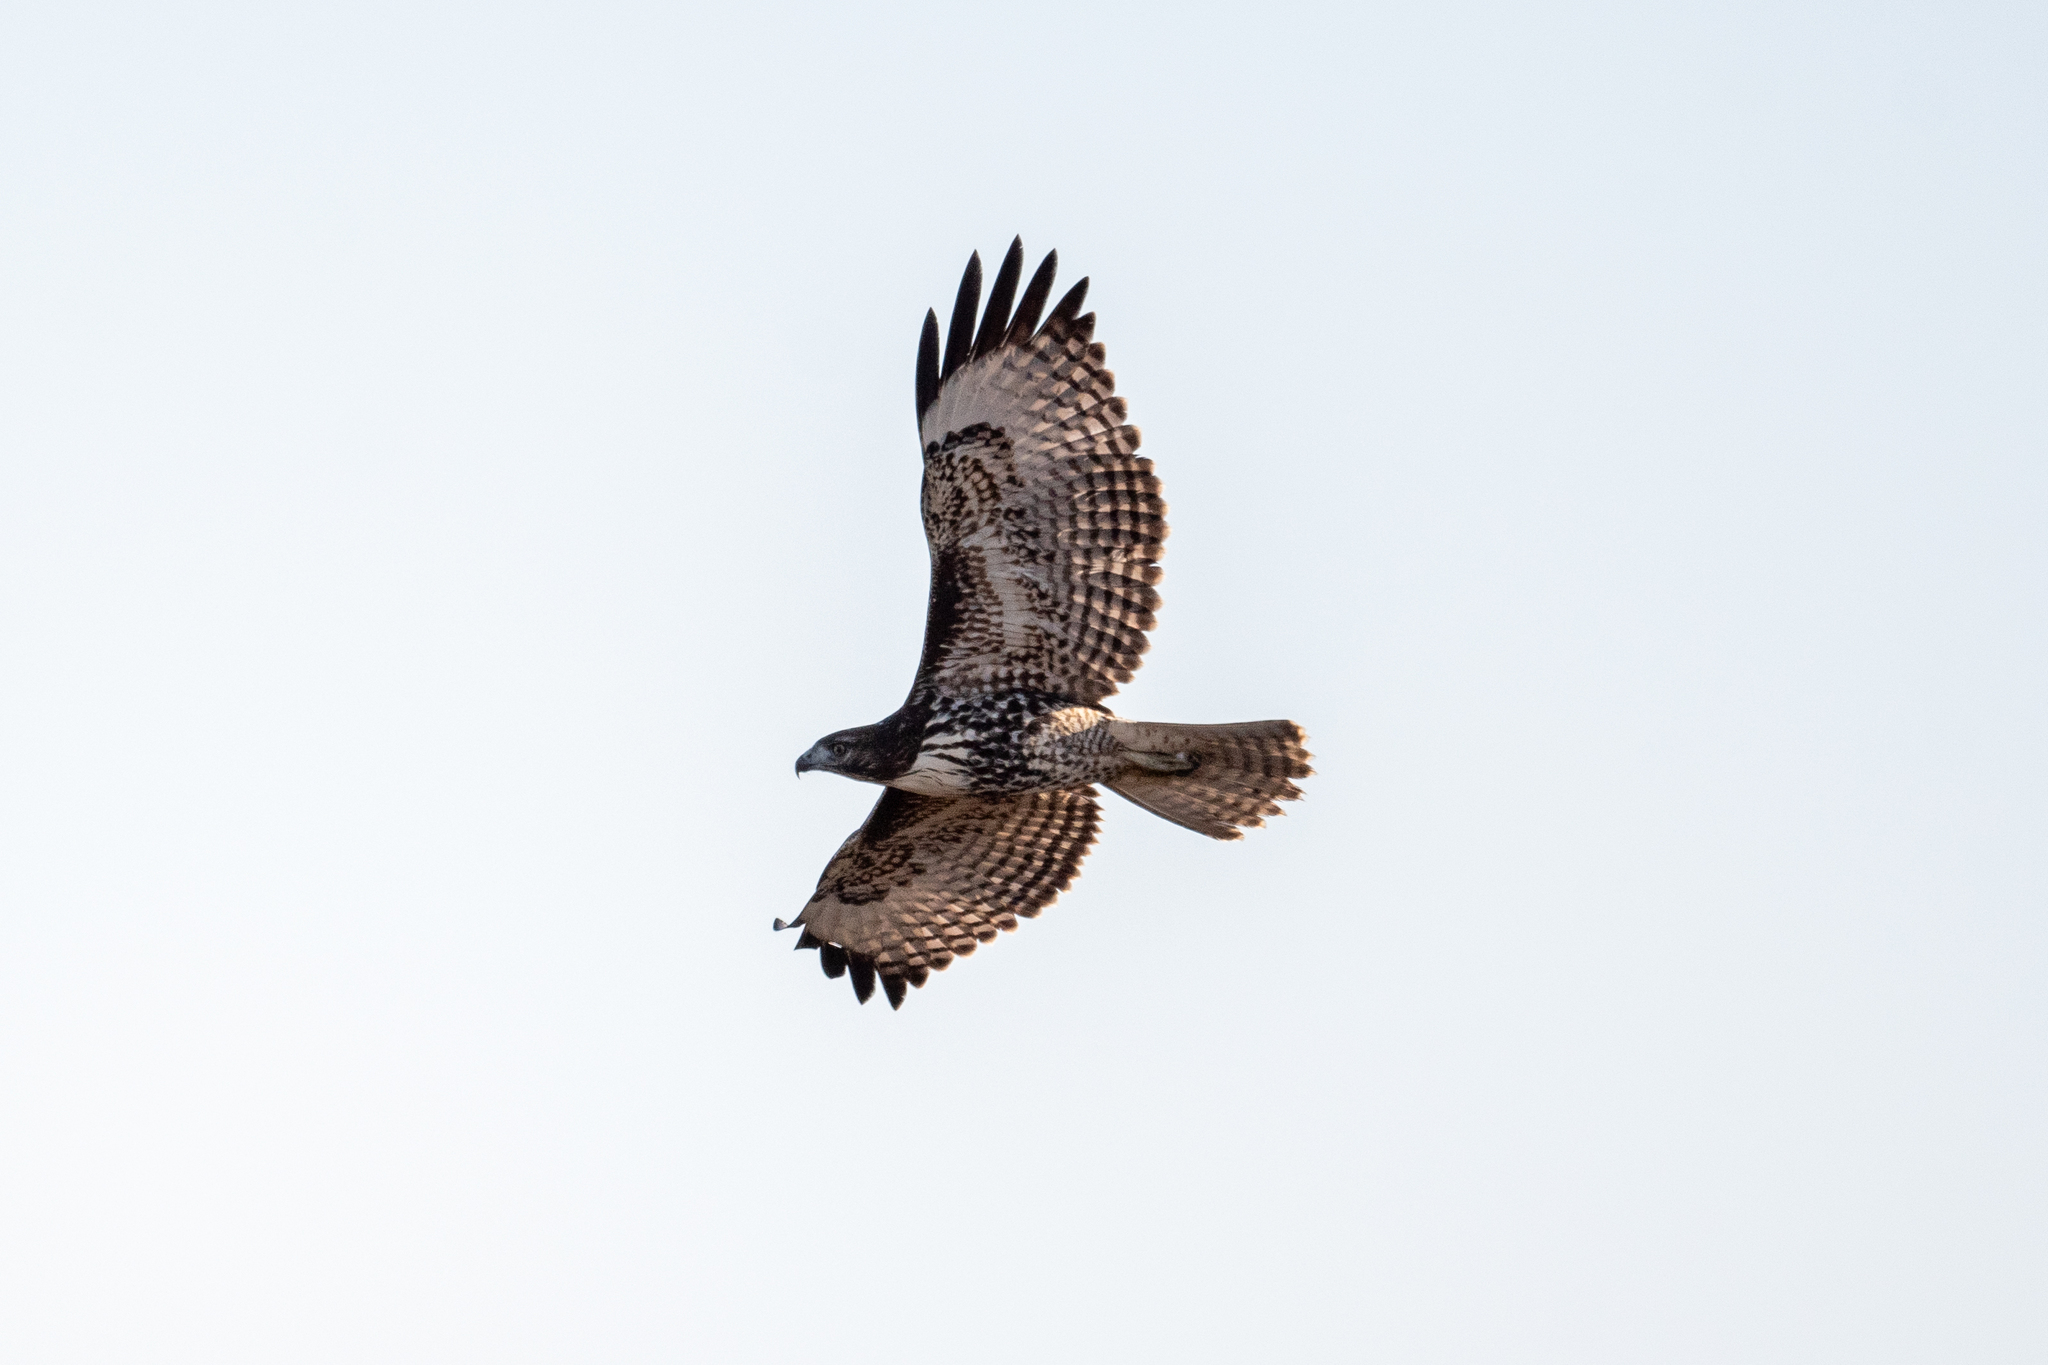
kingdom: Animalia
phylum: Chordata
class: Aves
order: Accipitriformes
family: Accipitridae
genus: Buteo
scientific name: Buteo jamaicensis
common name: Red-tailed hawk
